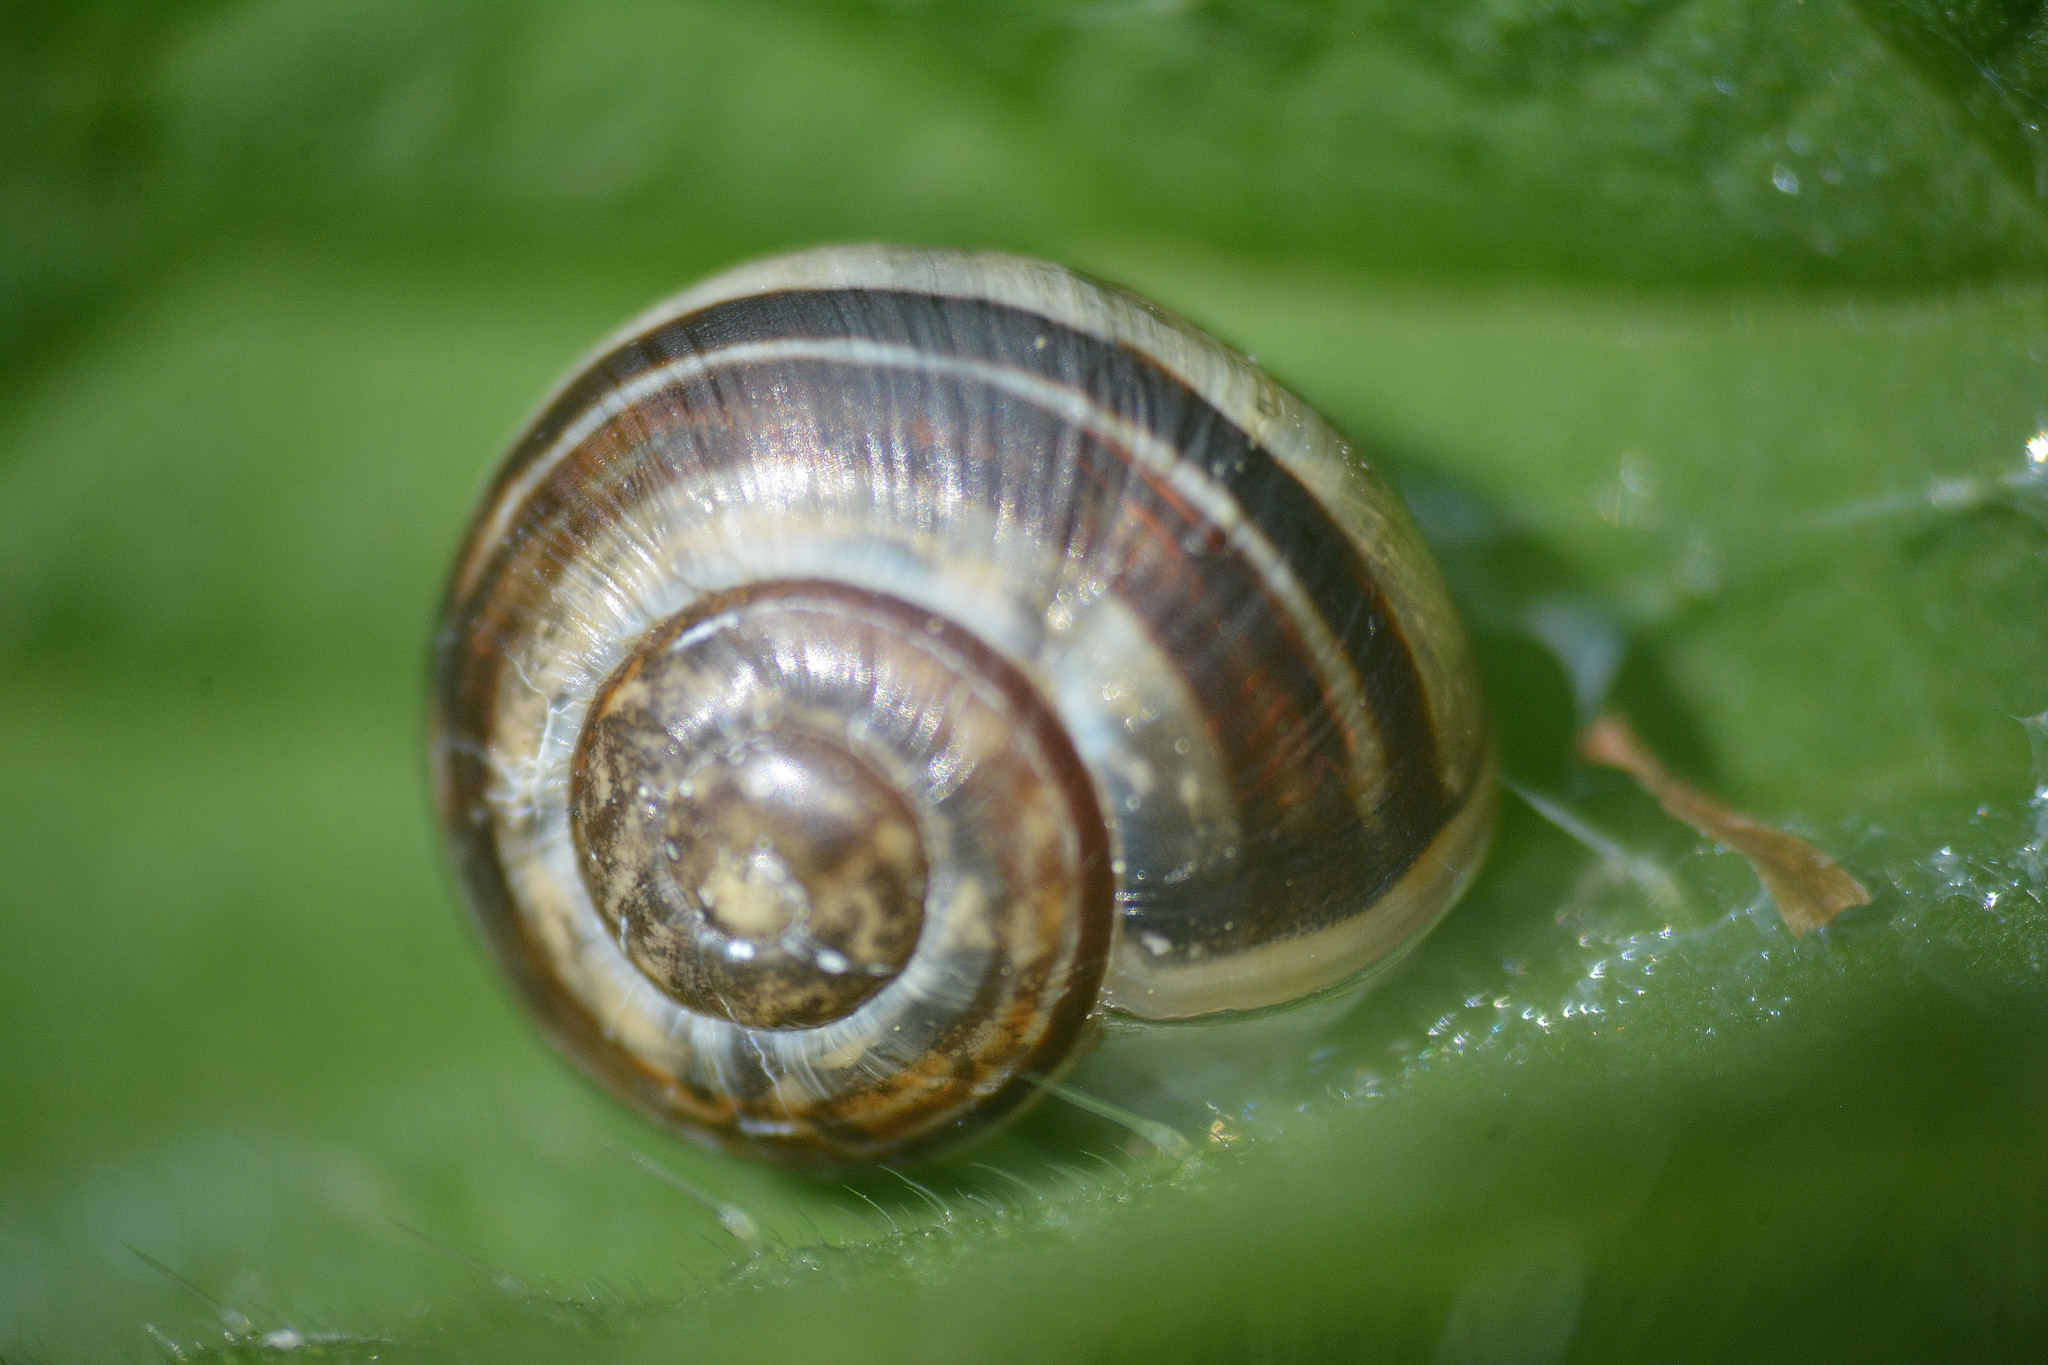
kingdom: Animalia
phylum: Mollusca
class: Gastropoda
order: Stylommatophora
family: Helicidae
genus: Cepaea
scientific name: Cepaea
